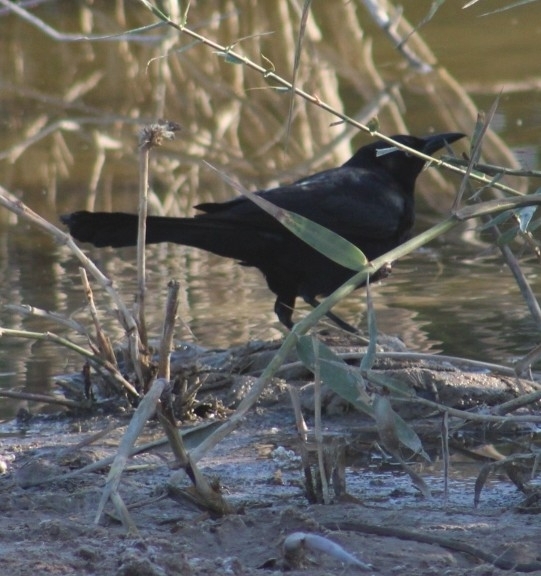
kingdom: Animalia
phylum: Chordata
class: Aves
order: Passeriformes
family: Icteridae
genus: Quiscalus
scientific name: Quiscalus mexicanus
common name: Great-tailed grackle
